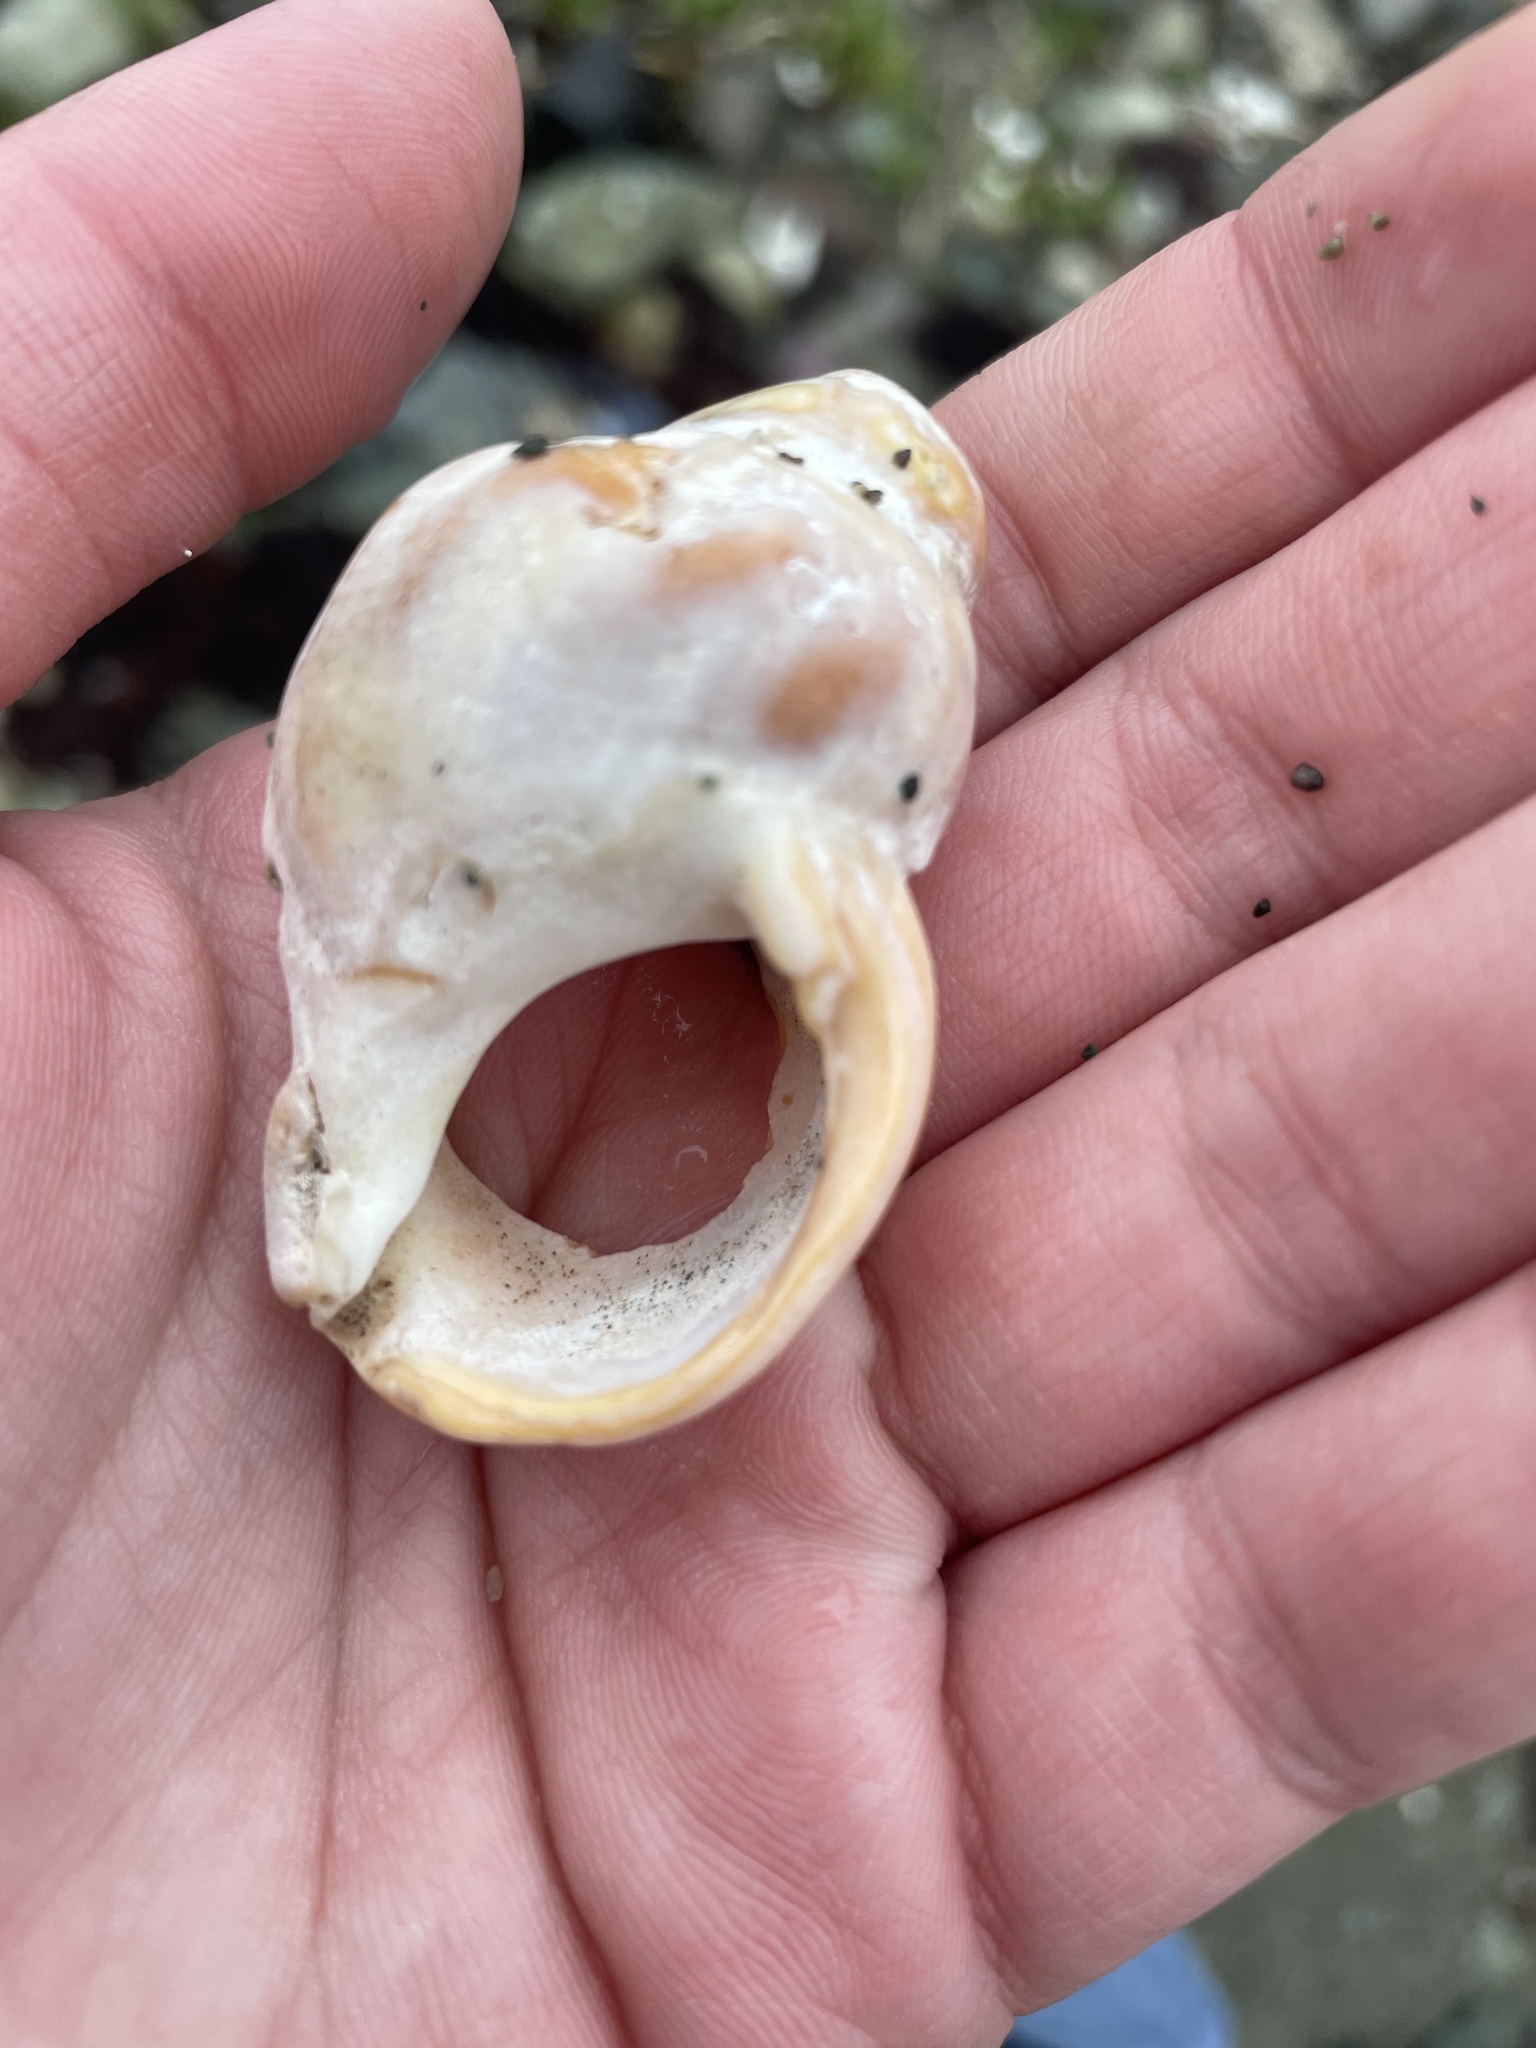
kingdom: Animalia
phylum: Mollusca
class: Gastropoda
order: Neogastropoda
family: Buccinidae
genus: Buccinum
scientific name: Buccinum undatum
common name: Common whelk
